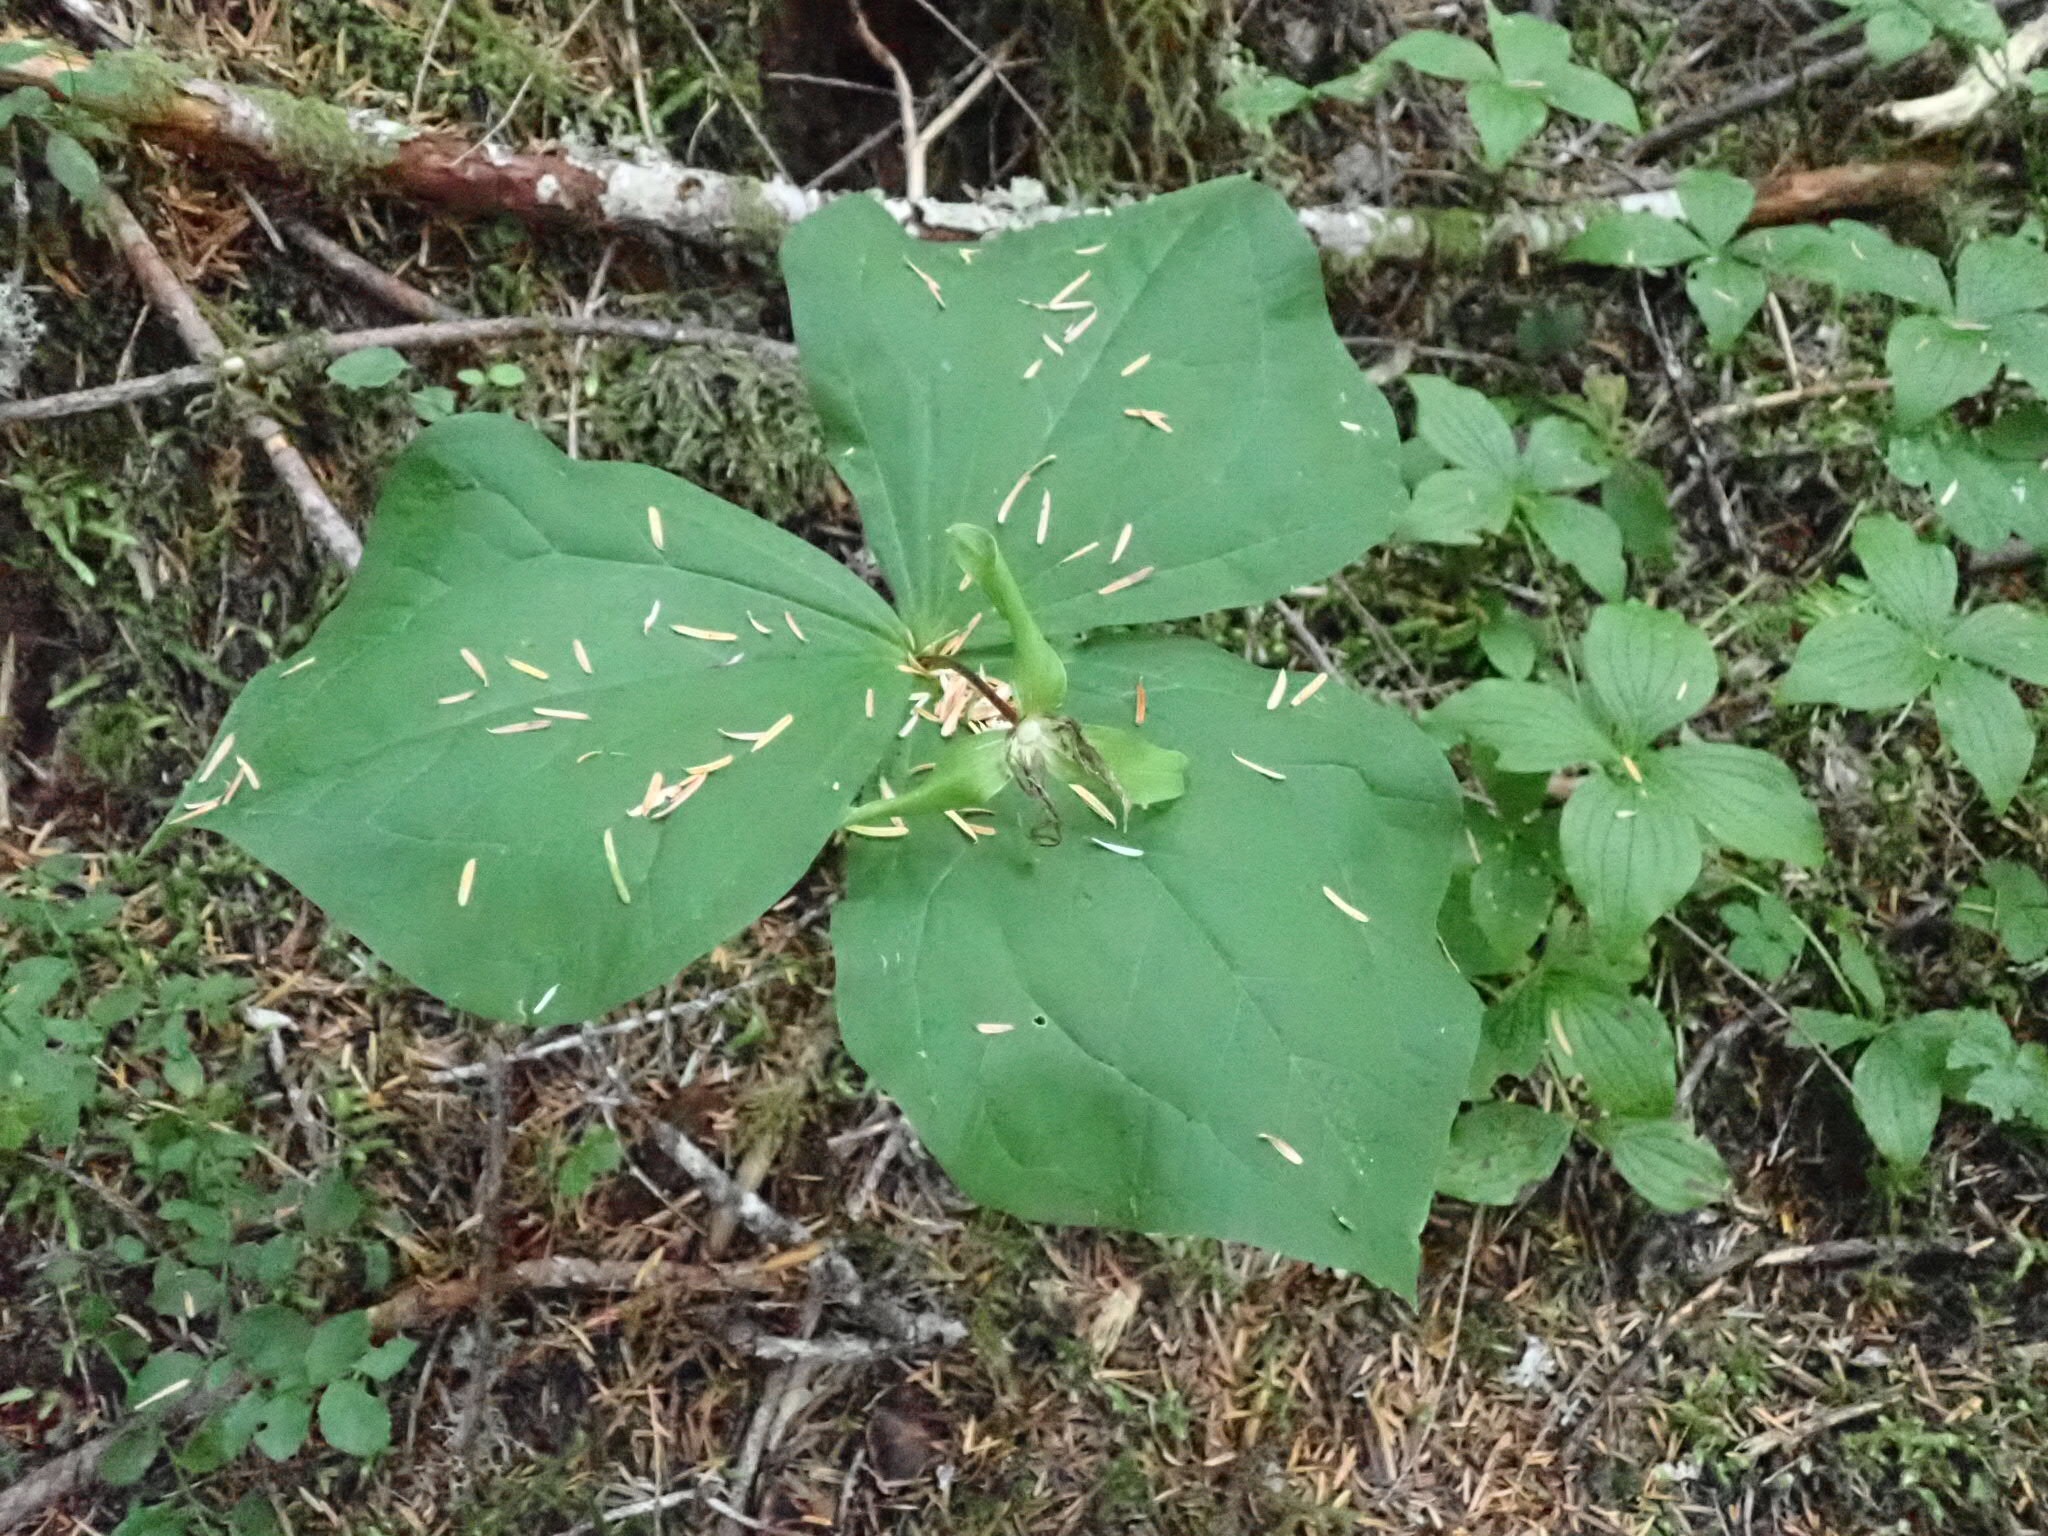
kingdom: Plantae
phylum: Tracheophyta
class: Liliopsida
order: Liliales
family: Melanthiaceae
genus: Trillium
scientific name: Trillium ovatum
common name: Pacific trillium
